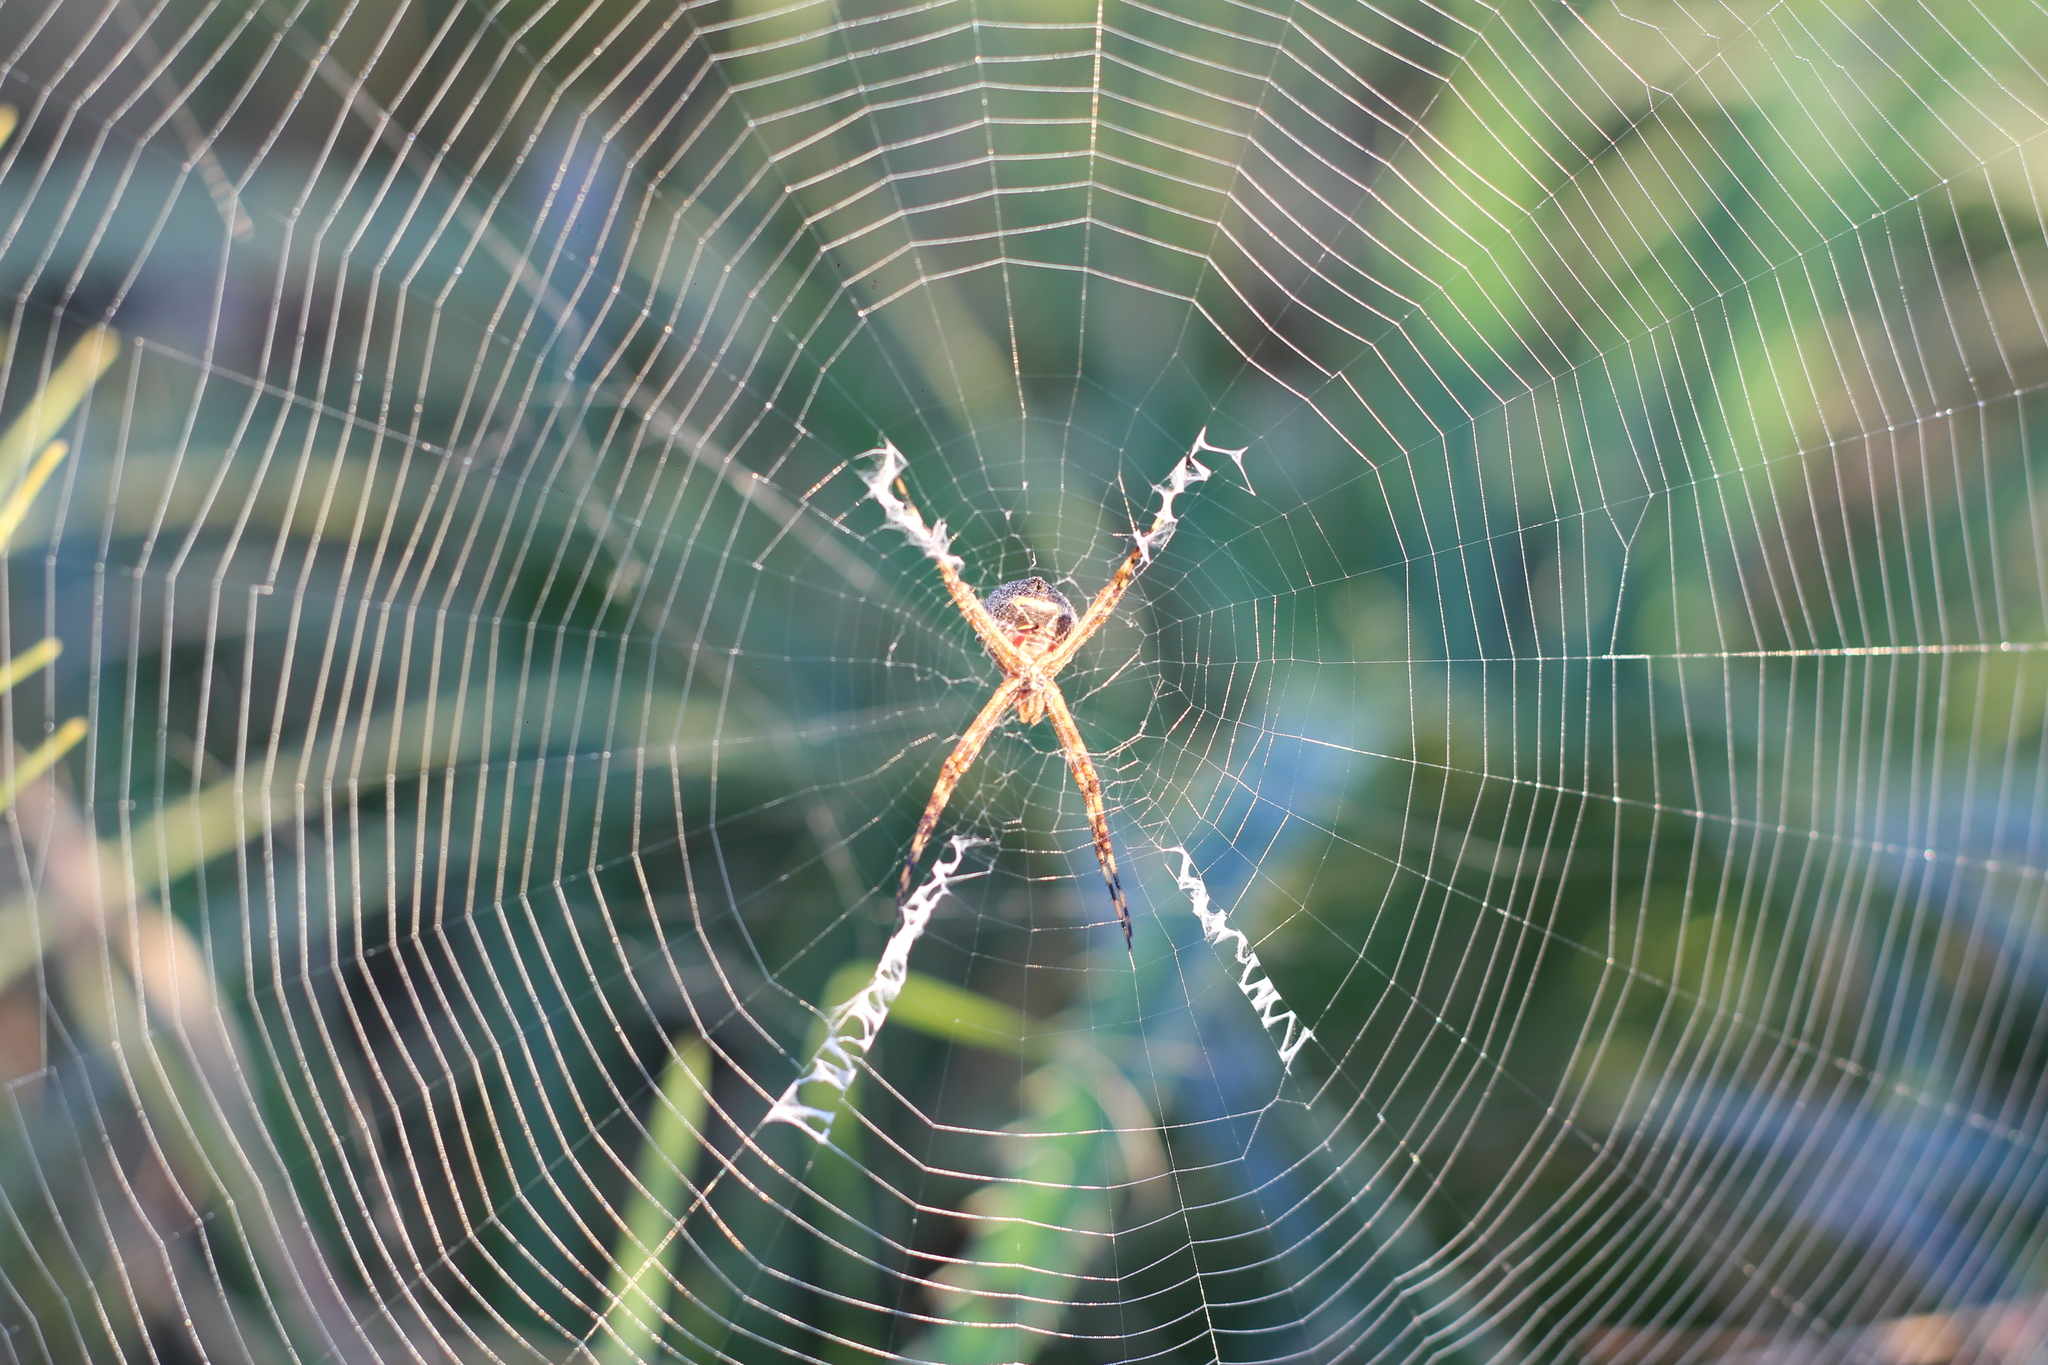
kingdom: Animalia
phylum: Arthropoda
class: Arachnida
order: Araneae
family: Araneidae
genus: Argiope
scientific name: Argiope argentata
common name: Orb weavers
